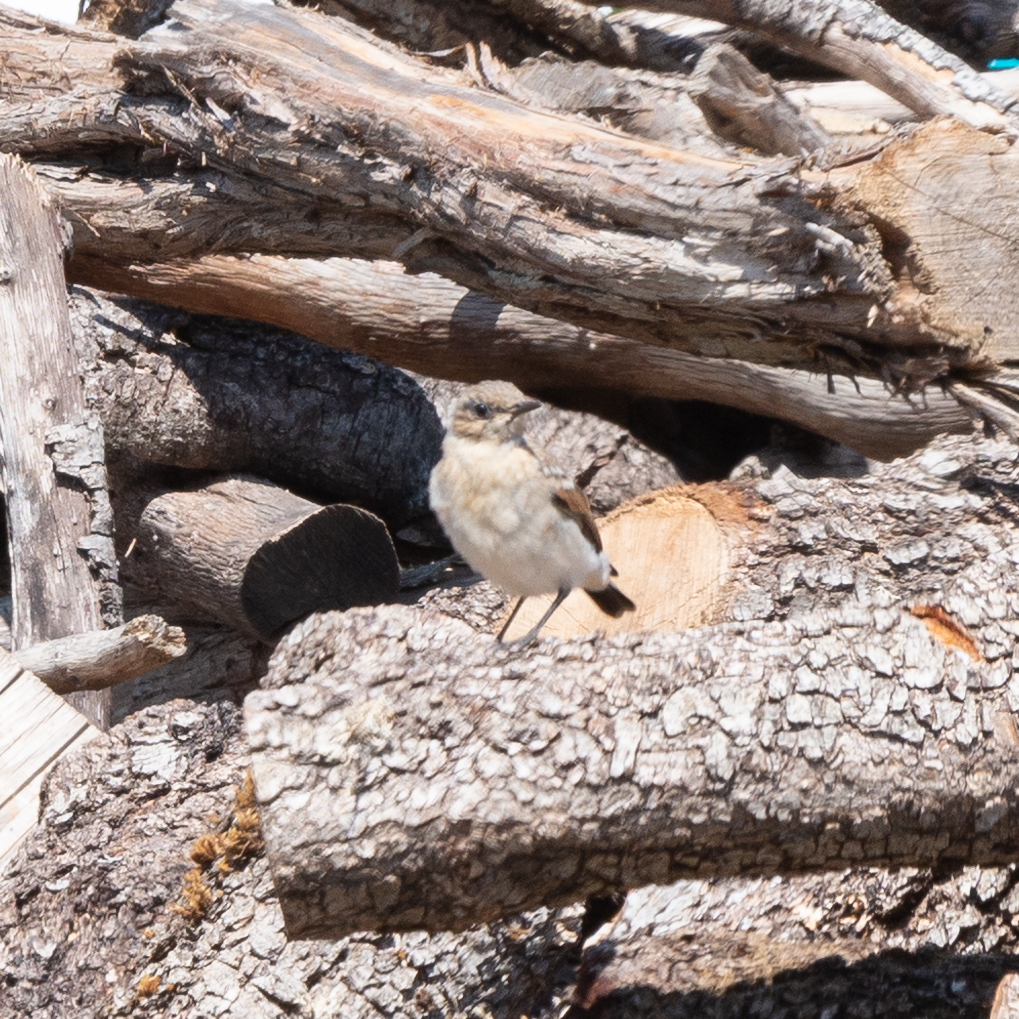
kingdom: Animalia
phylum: Chordata
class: Aves
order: Passeriformes
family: Muscicapidae
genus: Oenanthe
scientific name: Oenanthe oenanthe
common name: Northern wheatear
